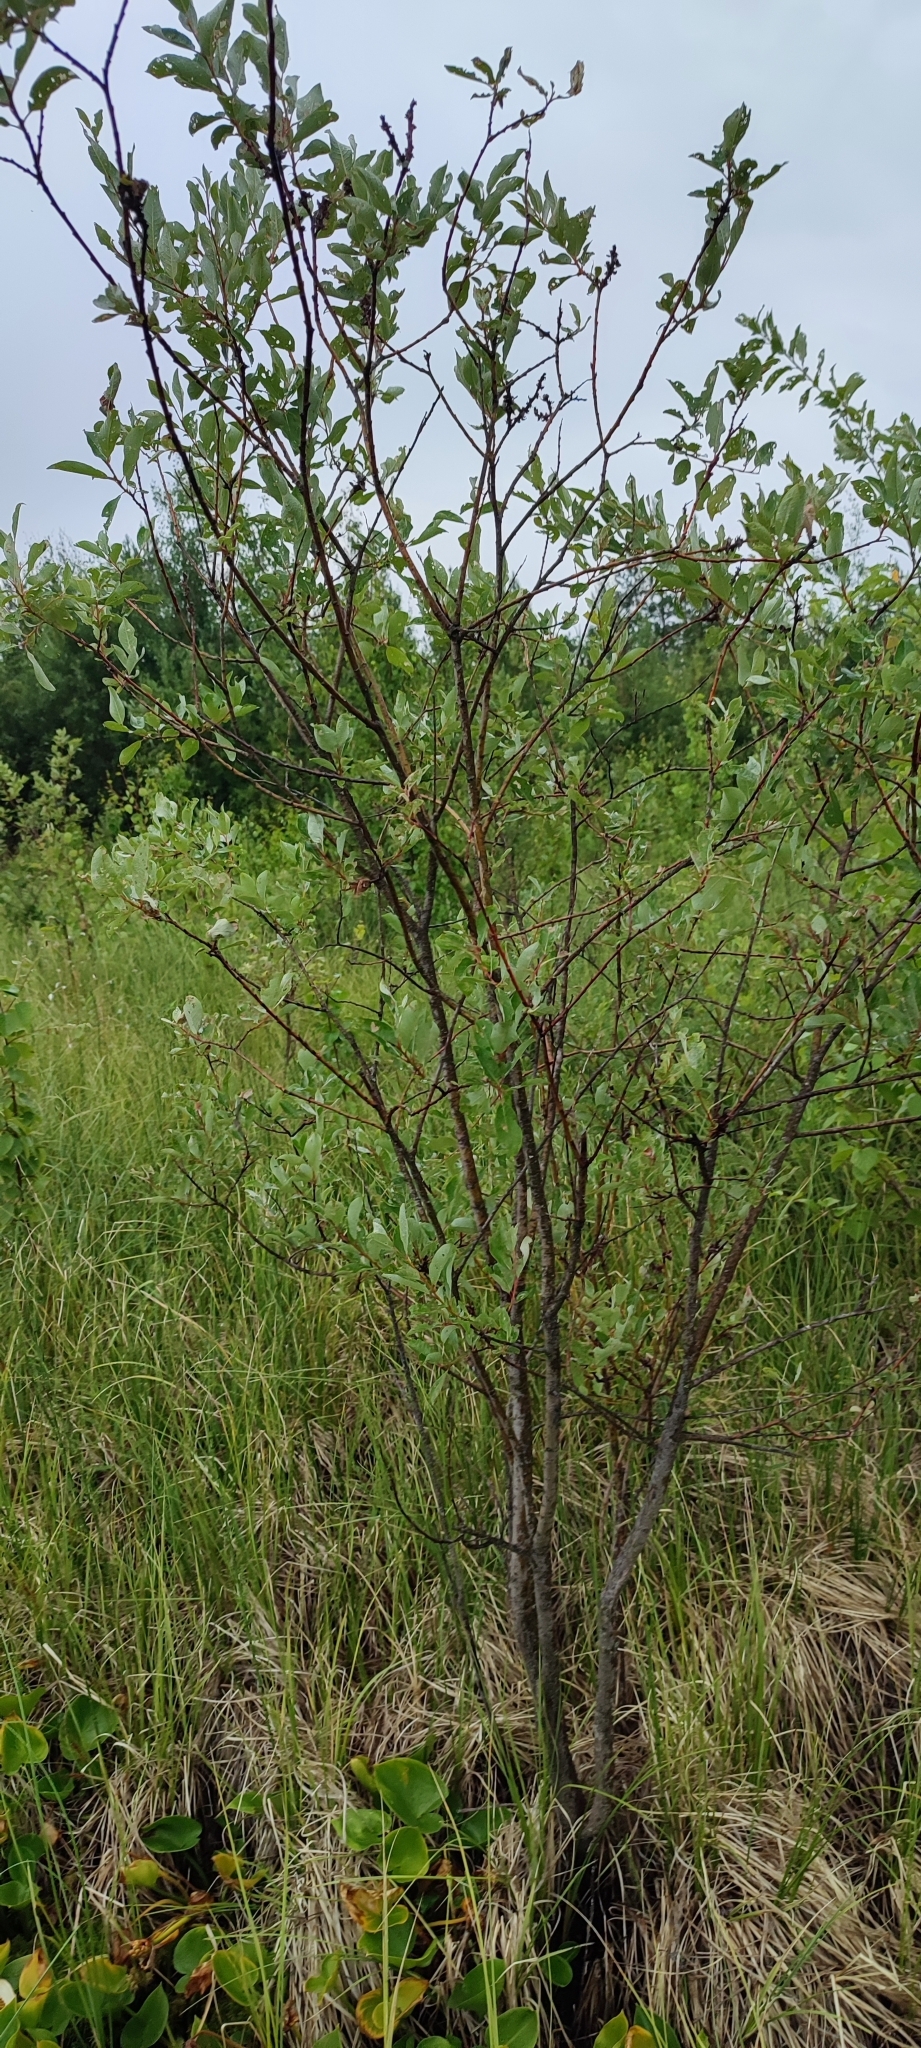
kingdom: Plantae
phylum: Tracheophyta
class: Magnoliopsida
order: Malpighiales
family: Salicaceae
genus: Salix
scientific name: Salix phylicifolia
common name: Tea-leaved willow
